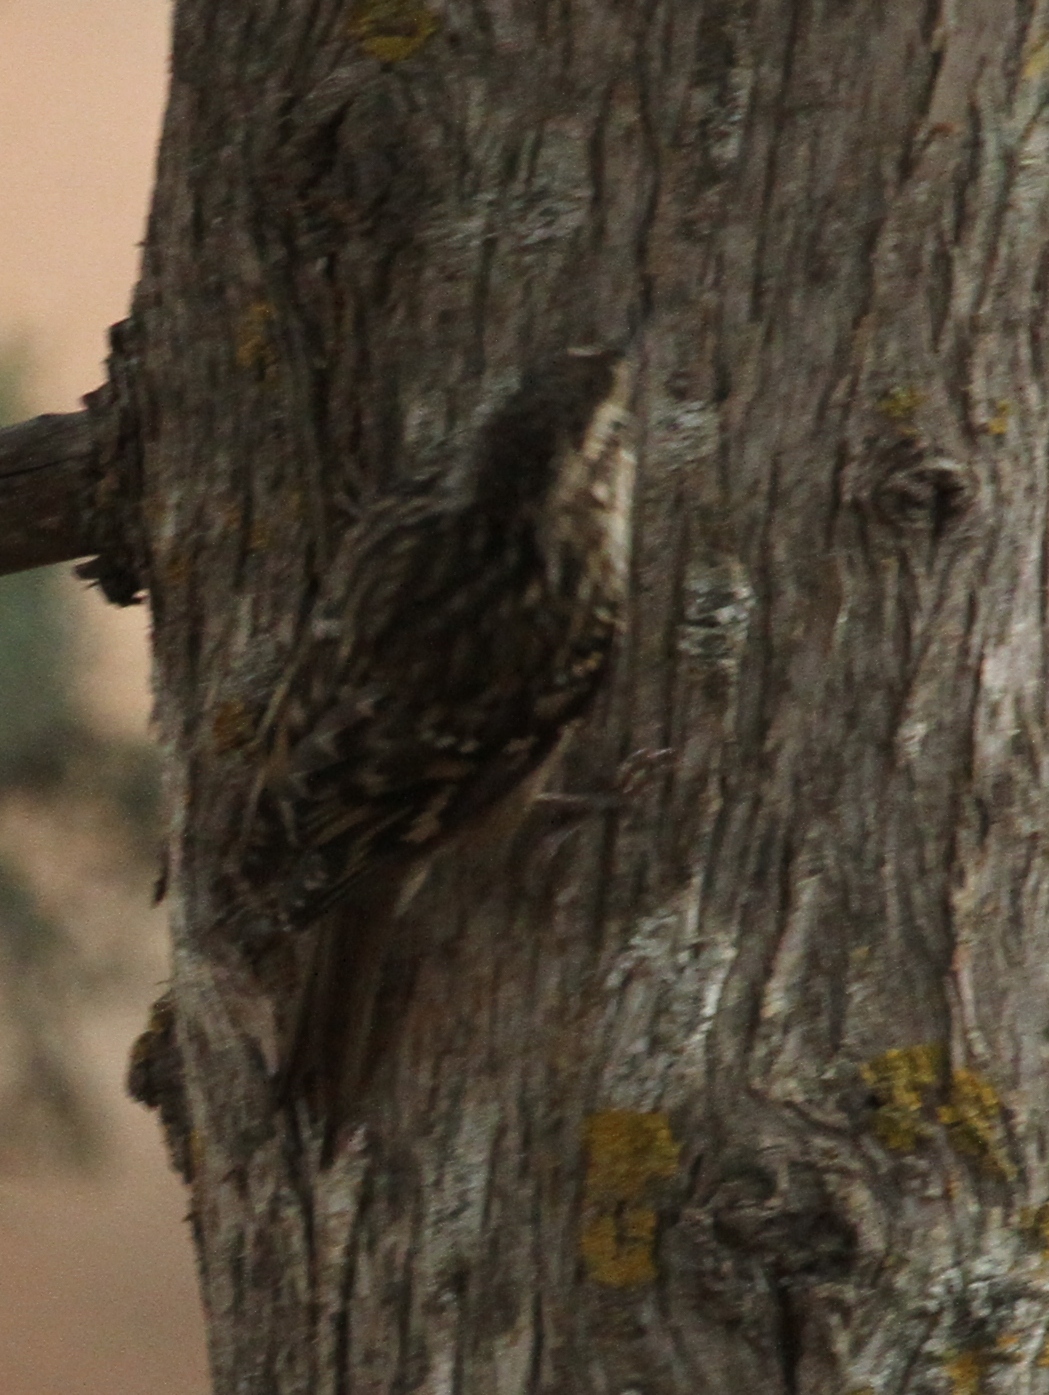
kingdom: Animalia
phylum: Chordata
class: Aves
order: Passeriformes
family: Certhiidae
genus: Certhia
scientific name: Certhia brachydactyla
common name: Short-toed treecreeper
